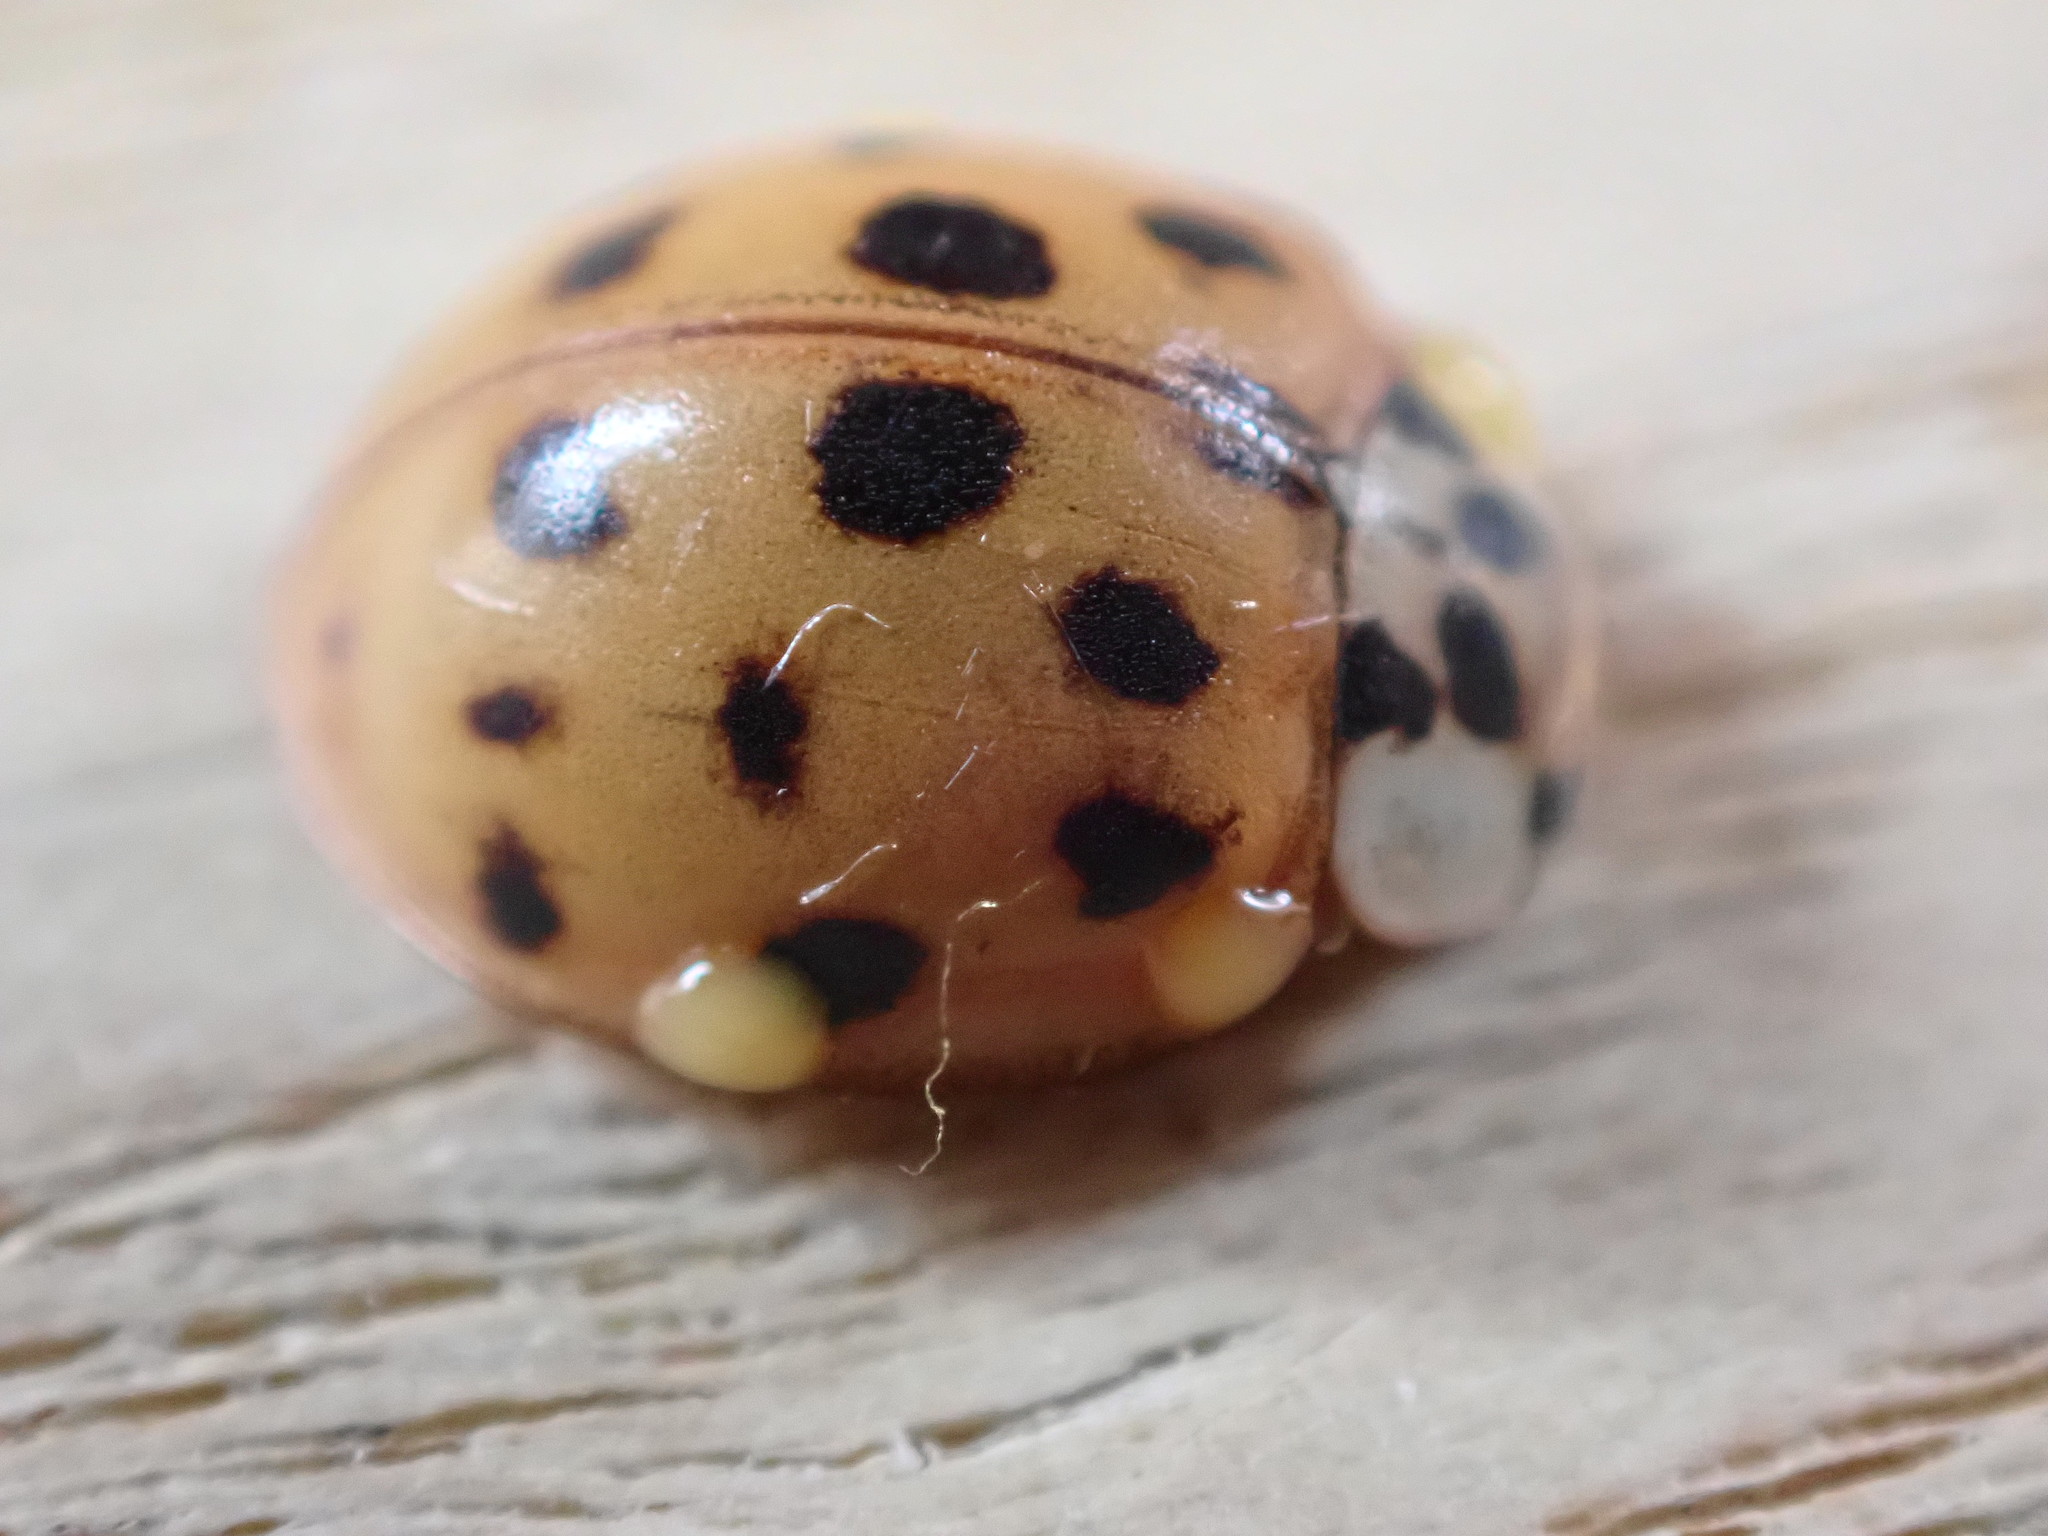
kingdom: Animalia
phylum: Arthropoda
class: Insecta
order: Coleoptera
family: Coccinellidae
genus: Harmonia
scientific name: Harmonia axyridis
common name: Harlequin ladybird
